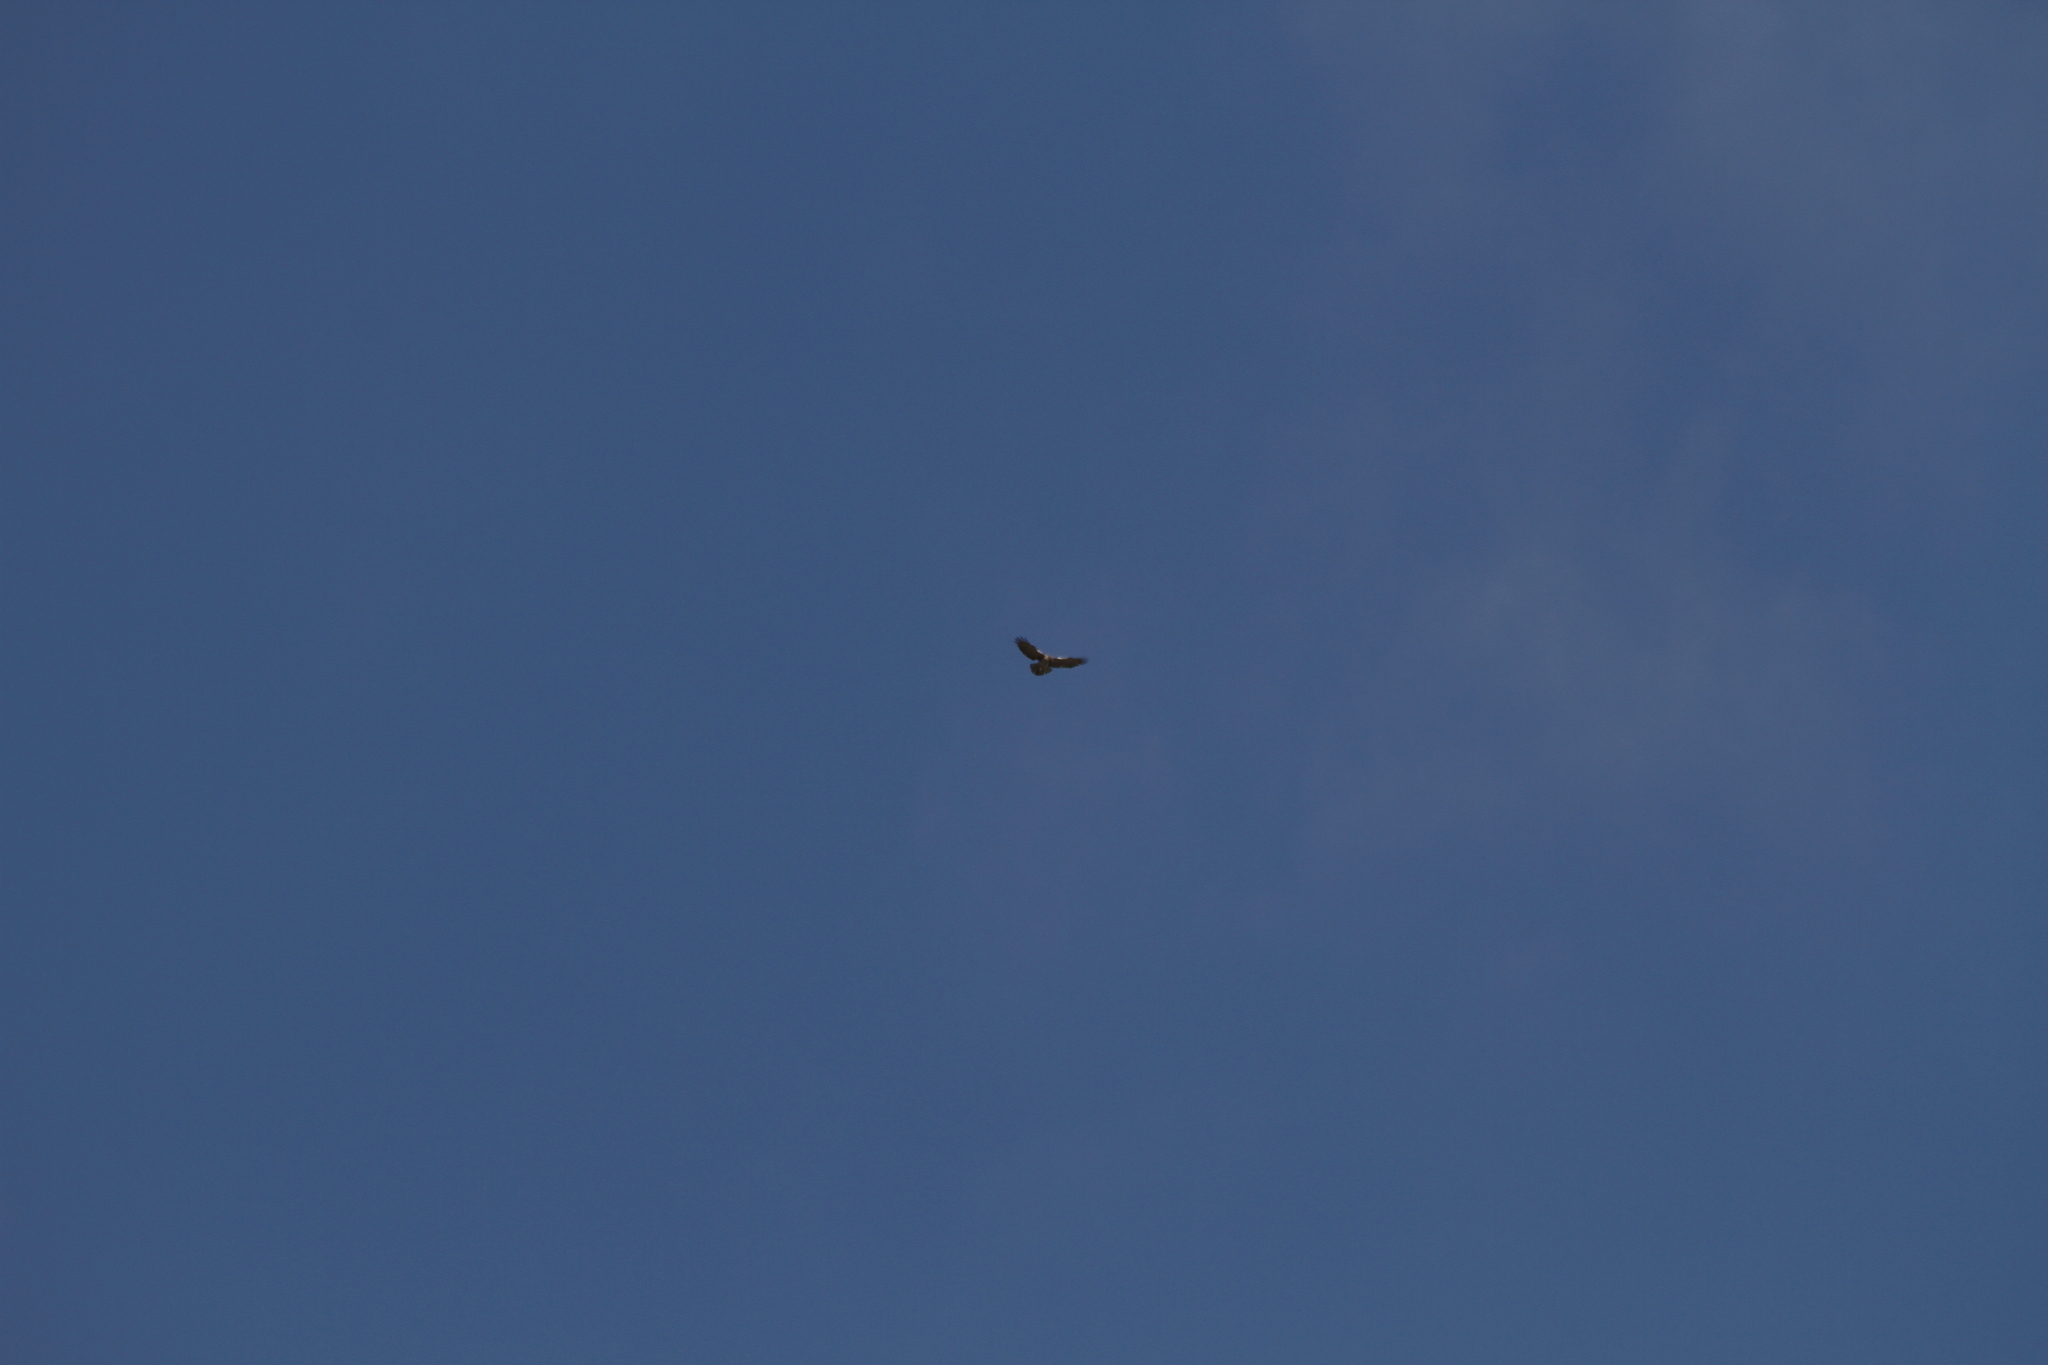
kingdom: Animalia
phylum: Chordata
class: Aves
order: Accipitriformes
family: Accipitridae
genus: Circaetus
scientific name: Circaetus gallicus
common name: Short-toed snake eagle
